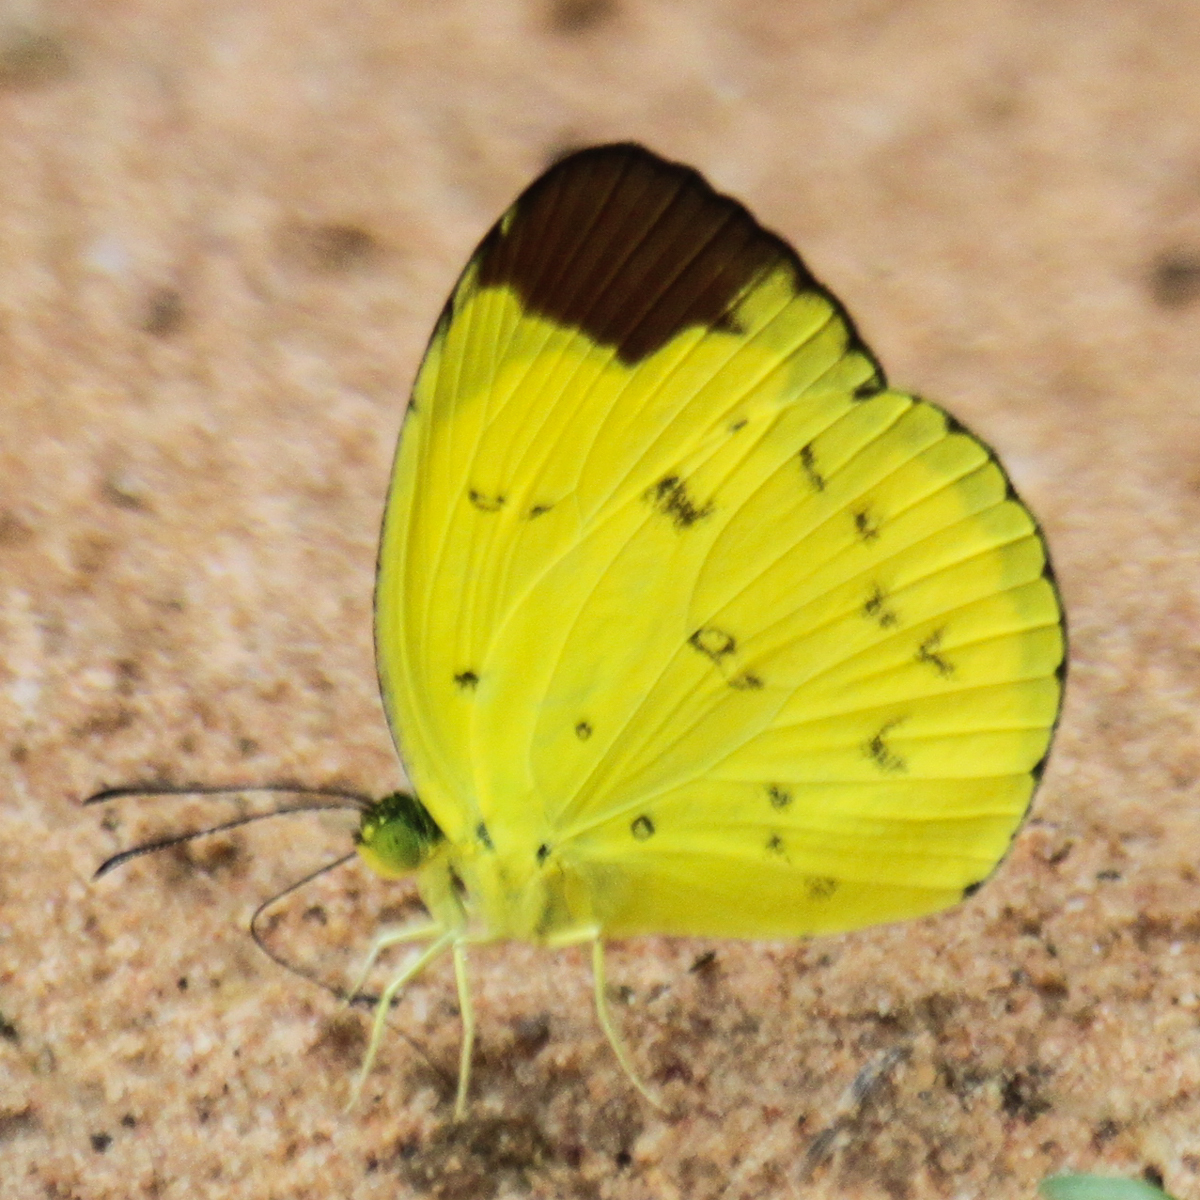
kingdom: Animalia
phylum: Arthropoda
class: Insecta
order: Lepidoptera
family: Pieridae
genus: Eurema
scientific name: Eurema sari
